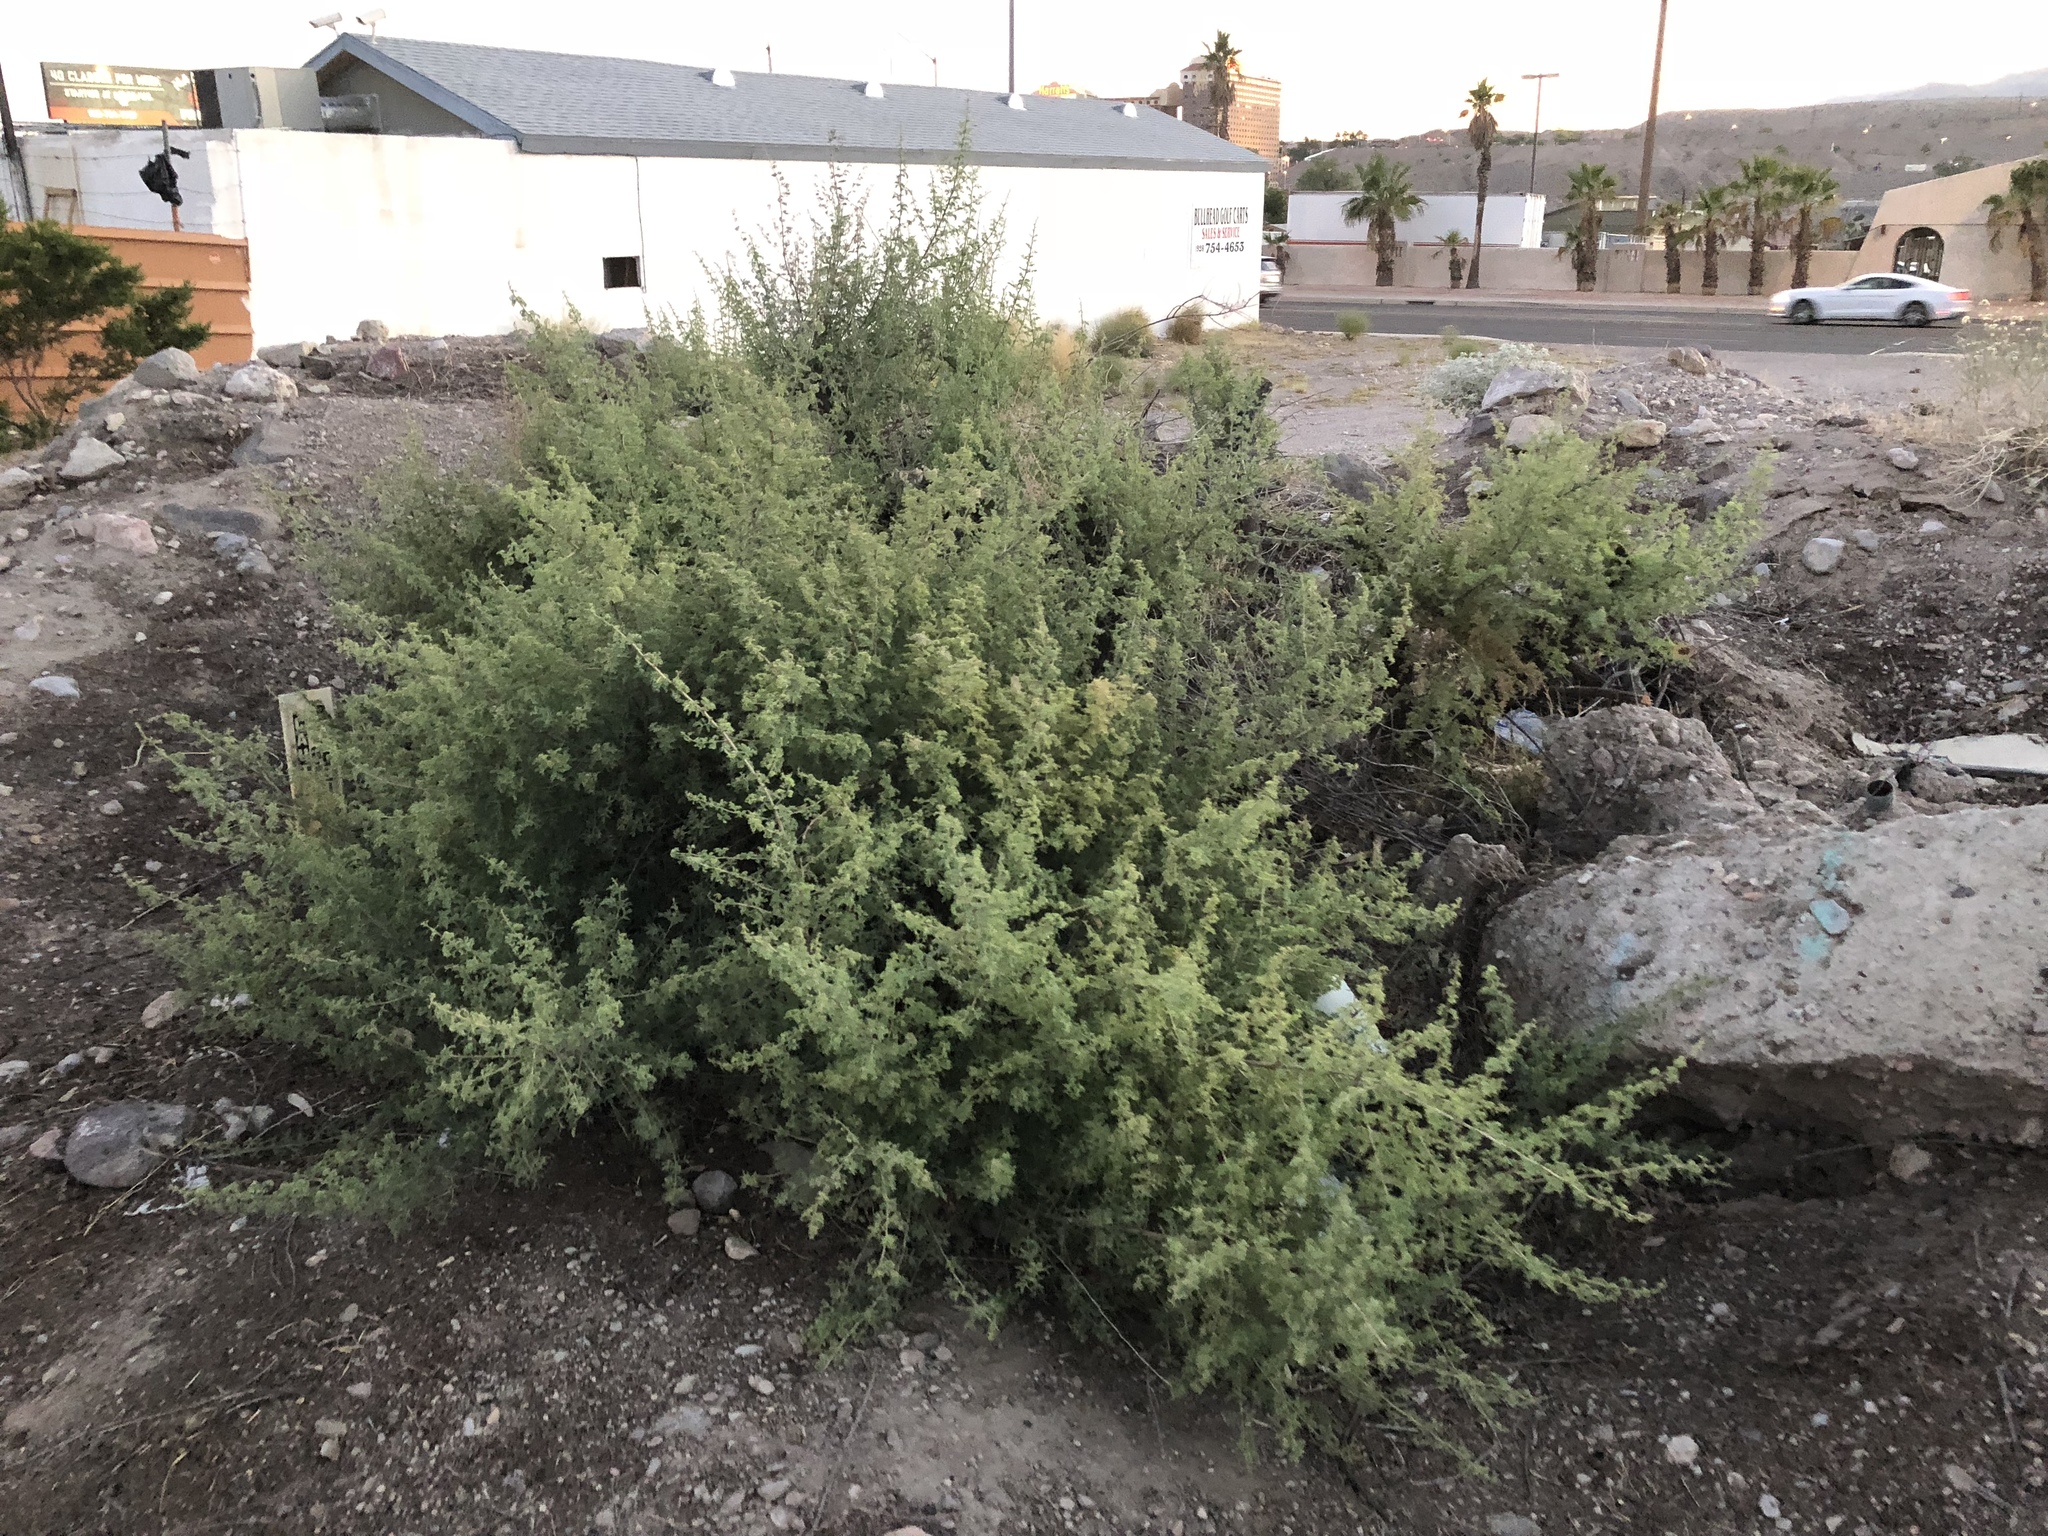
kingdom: Plantae
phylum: Tracheophyta
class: Magnoliopsida
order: Fabales
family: Fabaceae
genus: Senegalia
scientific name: Senegalia greggii
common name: Texas-mimosa
